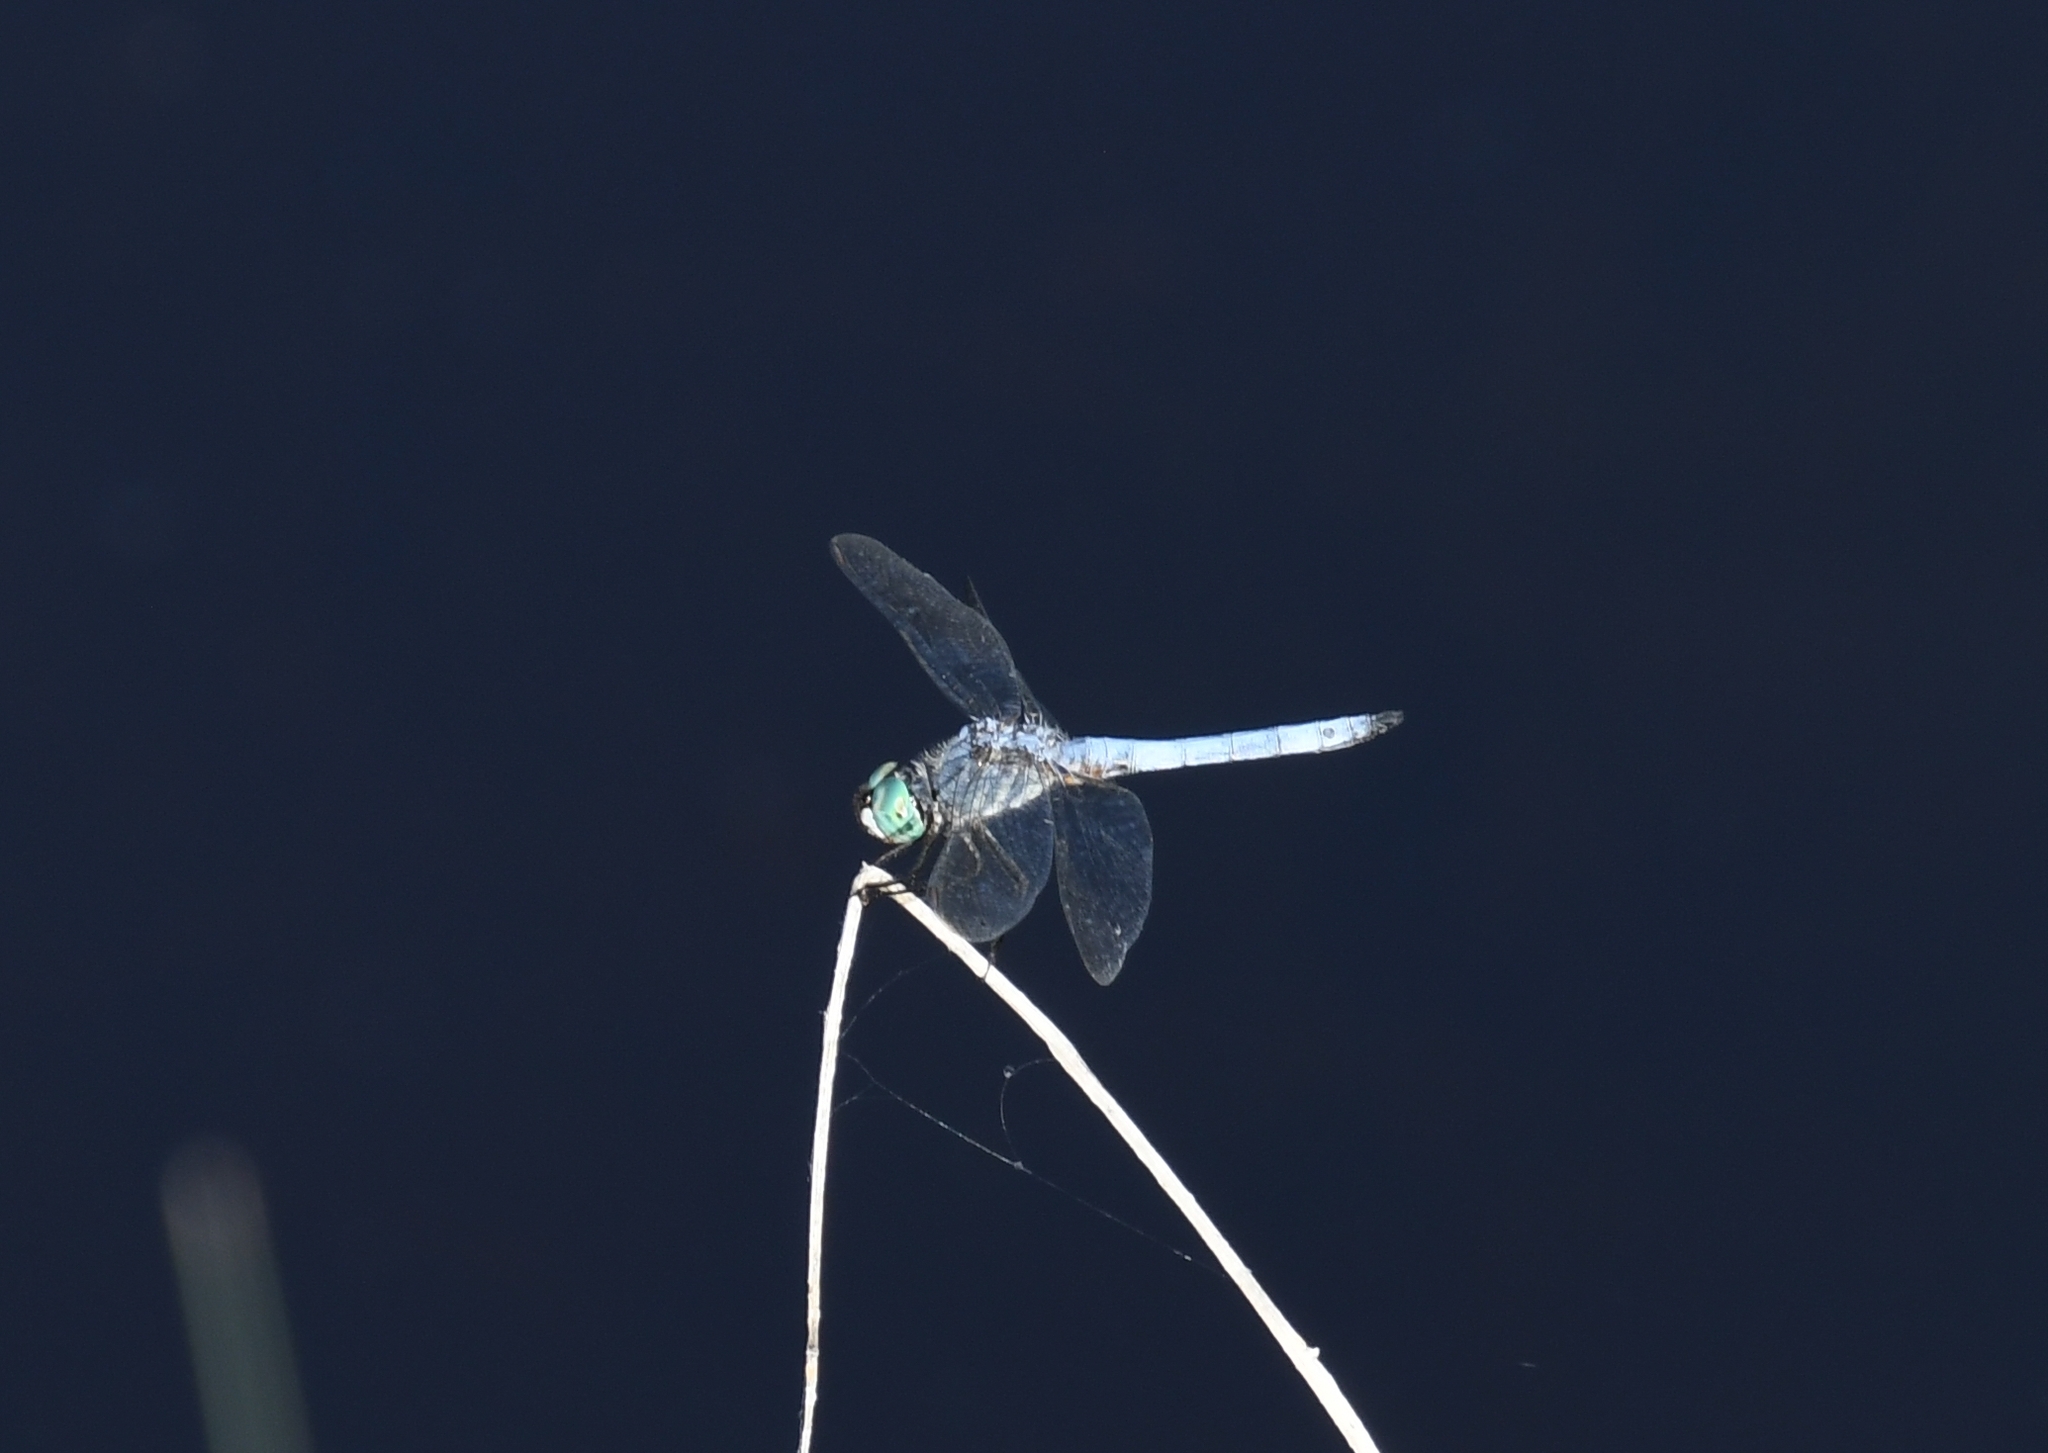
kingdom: Animalia
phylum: Arthropoda
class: Insecta
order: Odonata
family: Libellulidae
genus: Pachydiplax
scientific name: Pachydiplax longipennis
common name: Blue dasher
